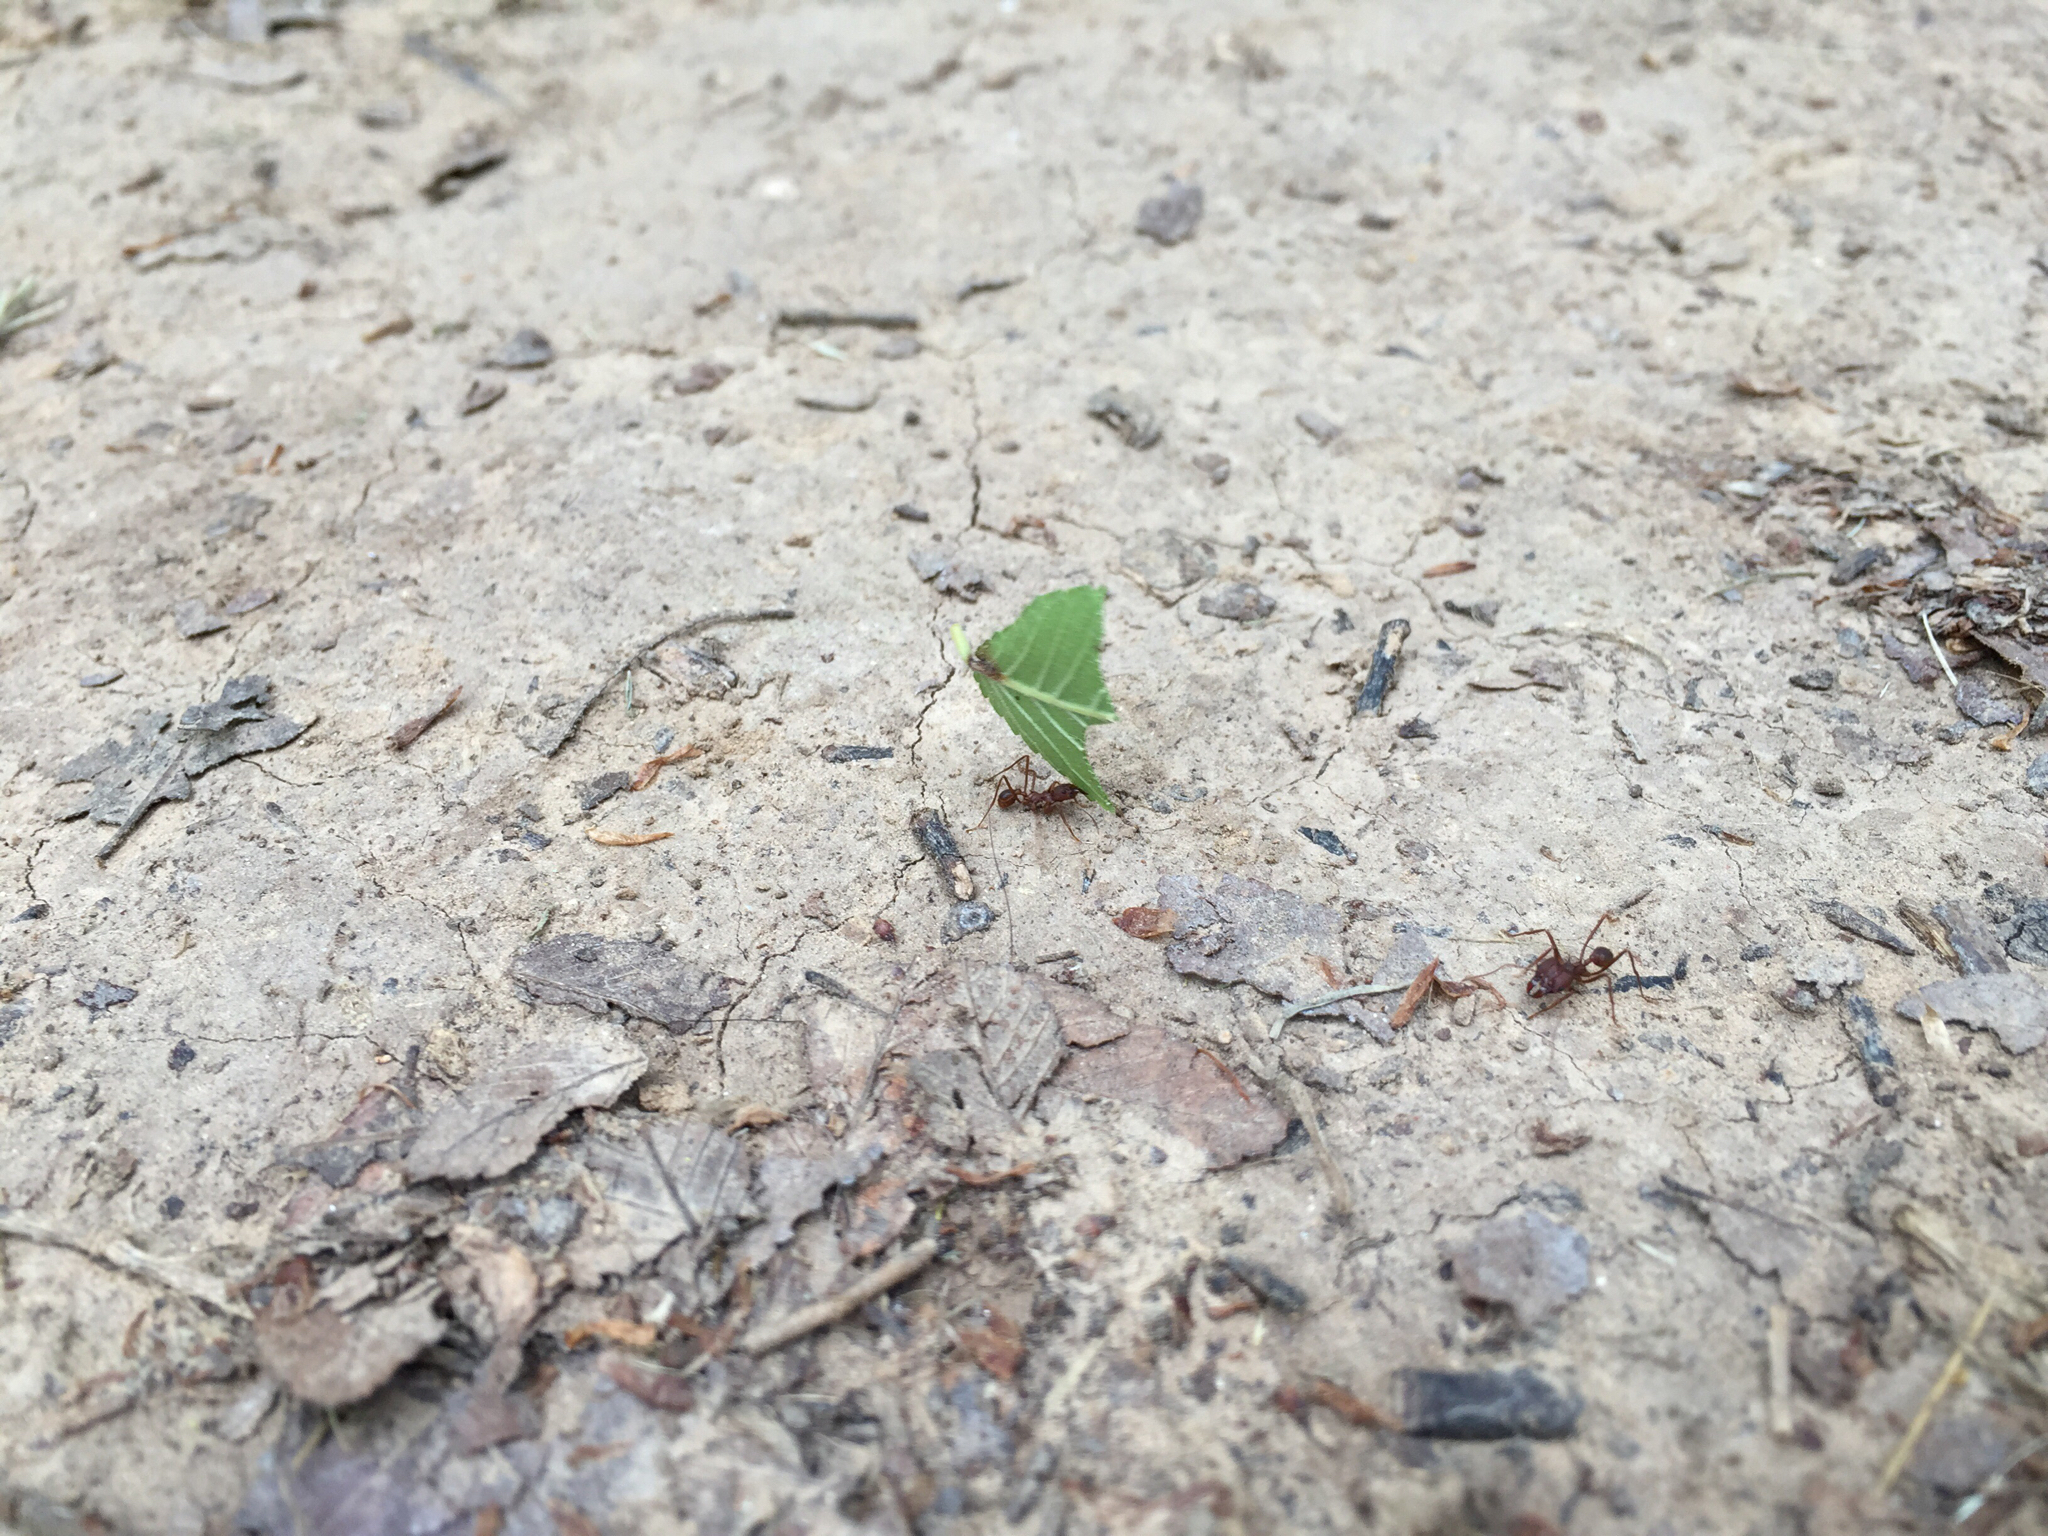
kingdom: Animalia
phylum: Arthropoda
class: Insecta
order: Hymenoptera
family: Formicidae
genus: Atta
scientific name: Atta texana
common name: Texas leafcutting ant
